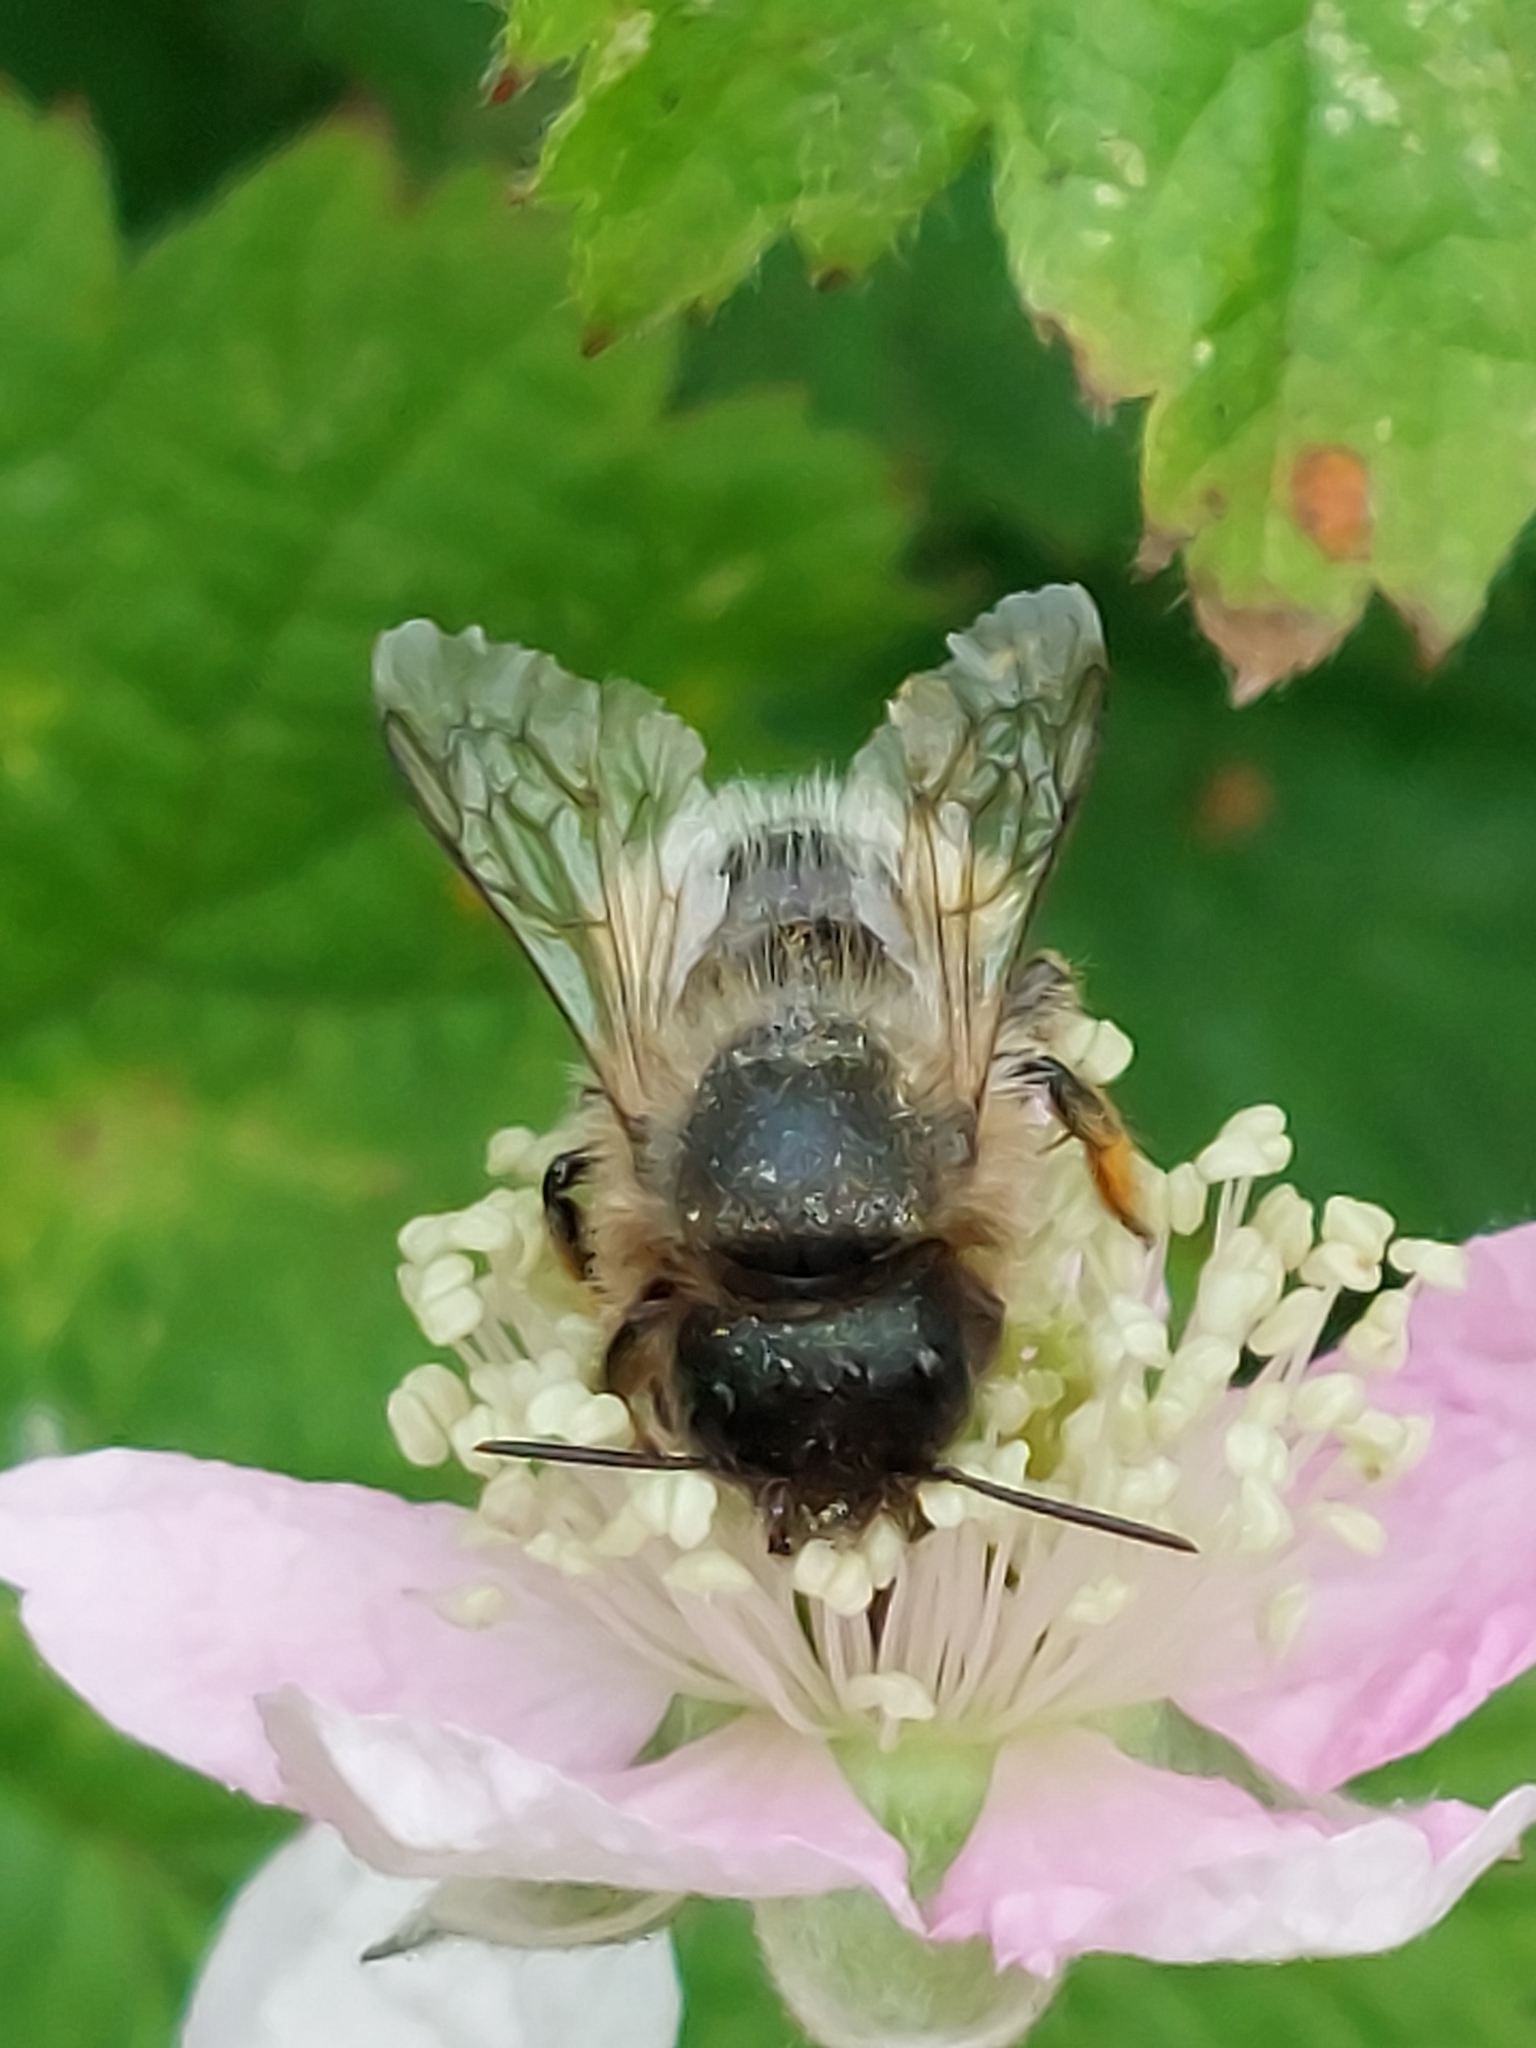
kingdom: Animalia
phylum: Arthropoda
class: Insecta
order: Hymenoptera
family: Megachilidae
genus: Osmia
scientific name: Osmia bicornis
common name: Red mason bee
